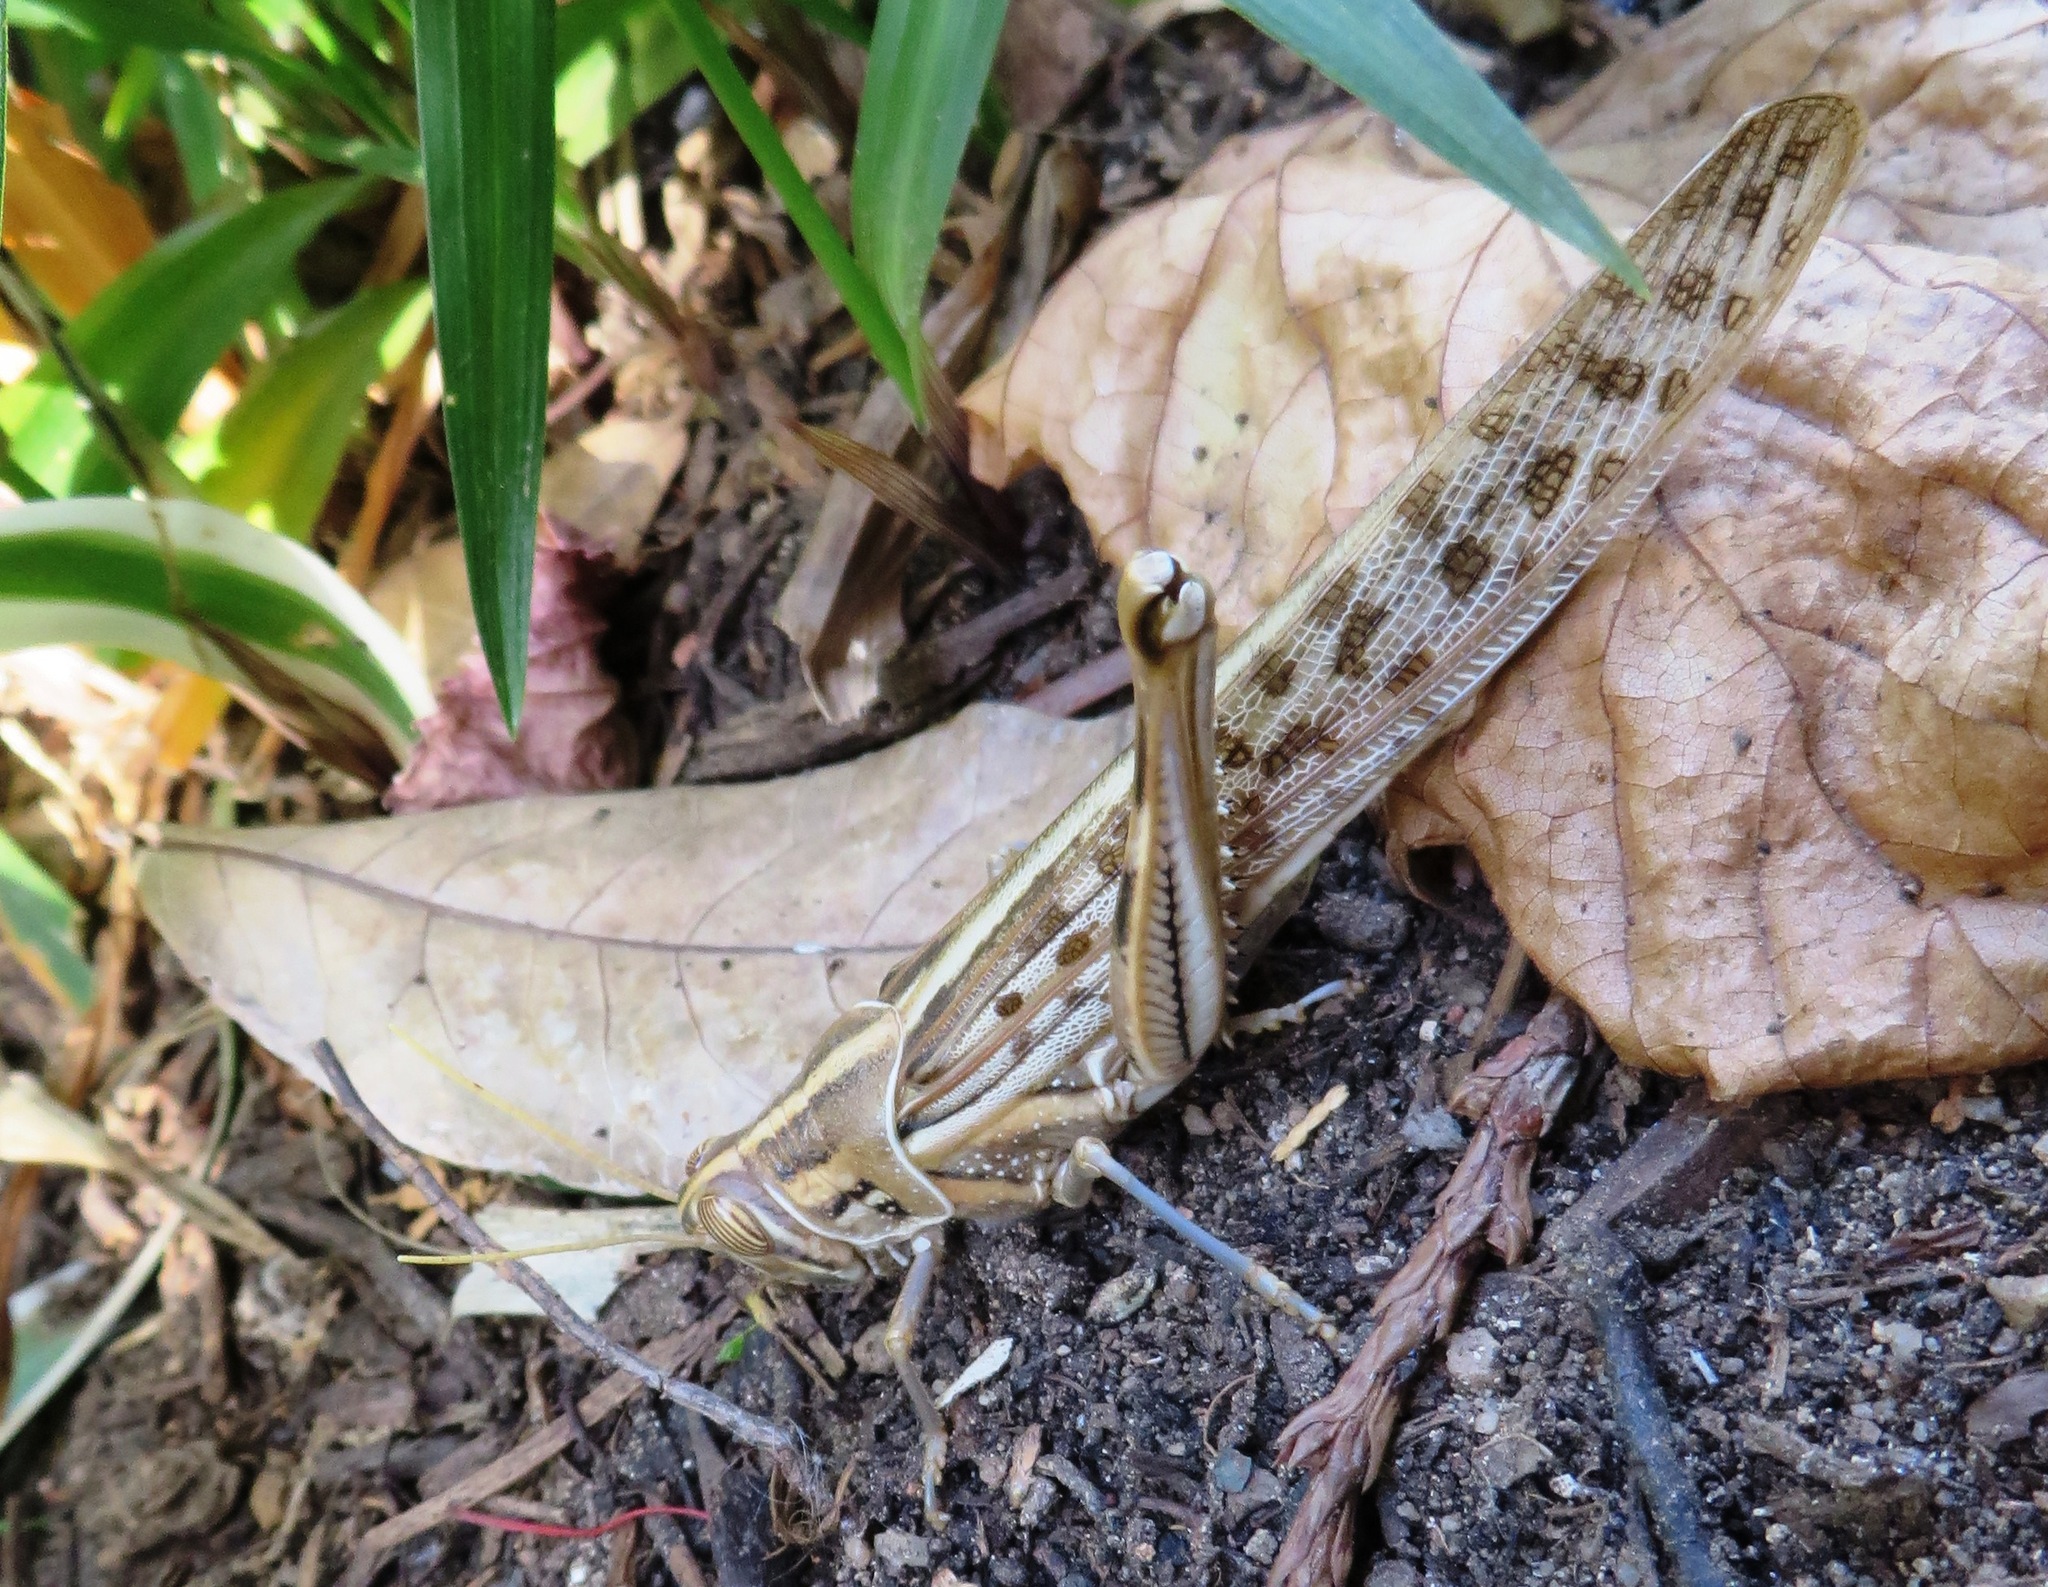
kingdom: Animalia
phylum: Arthropoda
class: Insecta
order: Orthoptera
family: Acrididae
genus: Schistocerca
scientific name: Schistocerca gregaria
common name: Desert locust
